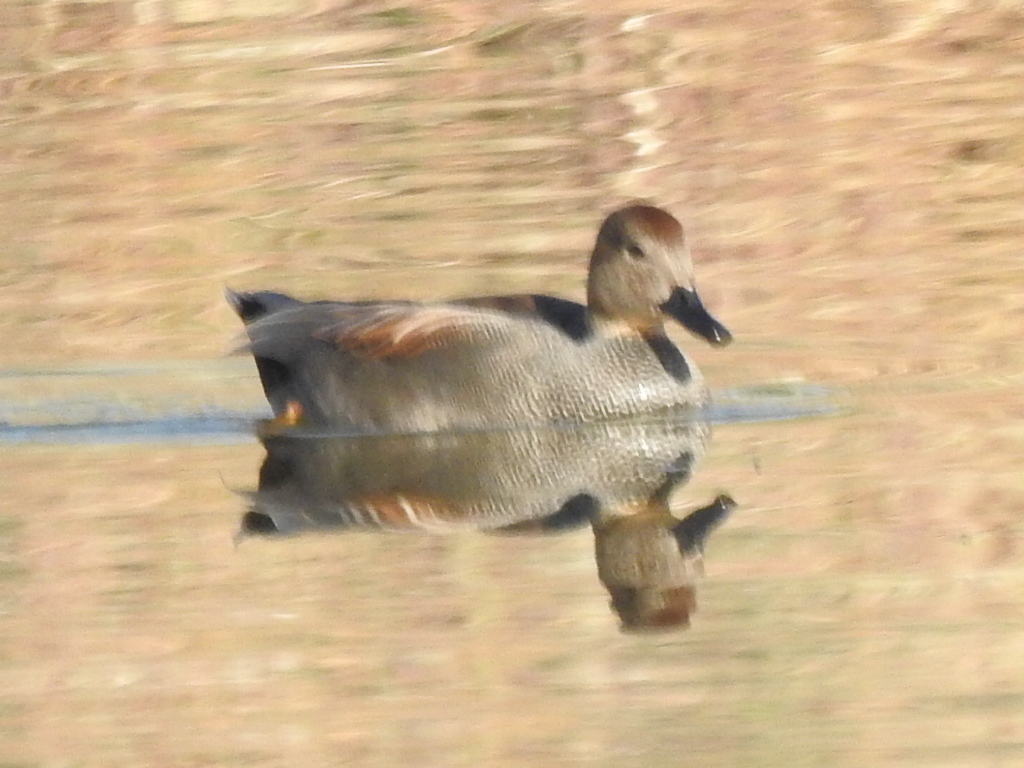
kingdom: Animalia
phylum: Chordata
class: Aves
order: Anseriformes
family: Anatidae
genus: Mareca
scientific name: Mareca strepera
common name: Gadwall
